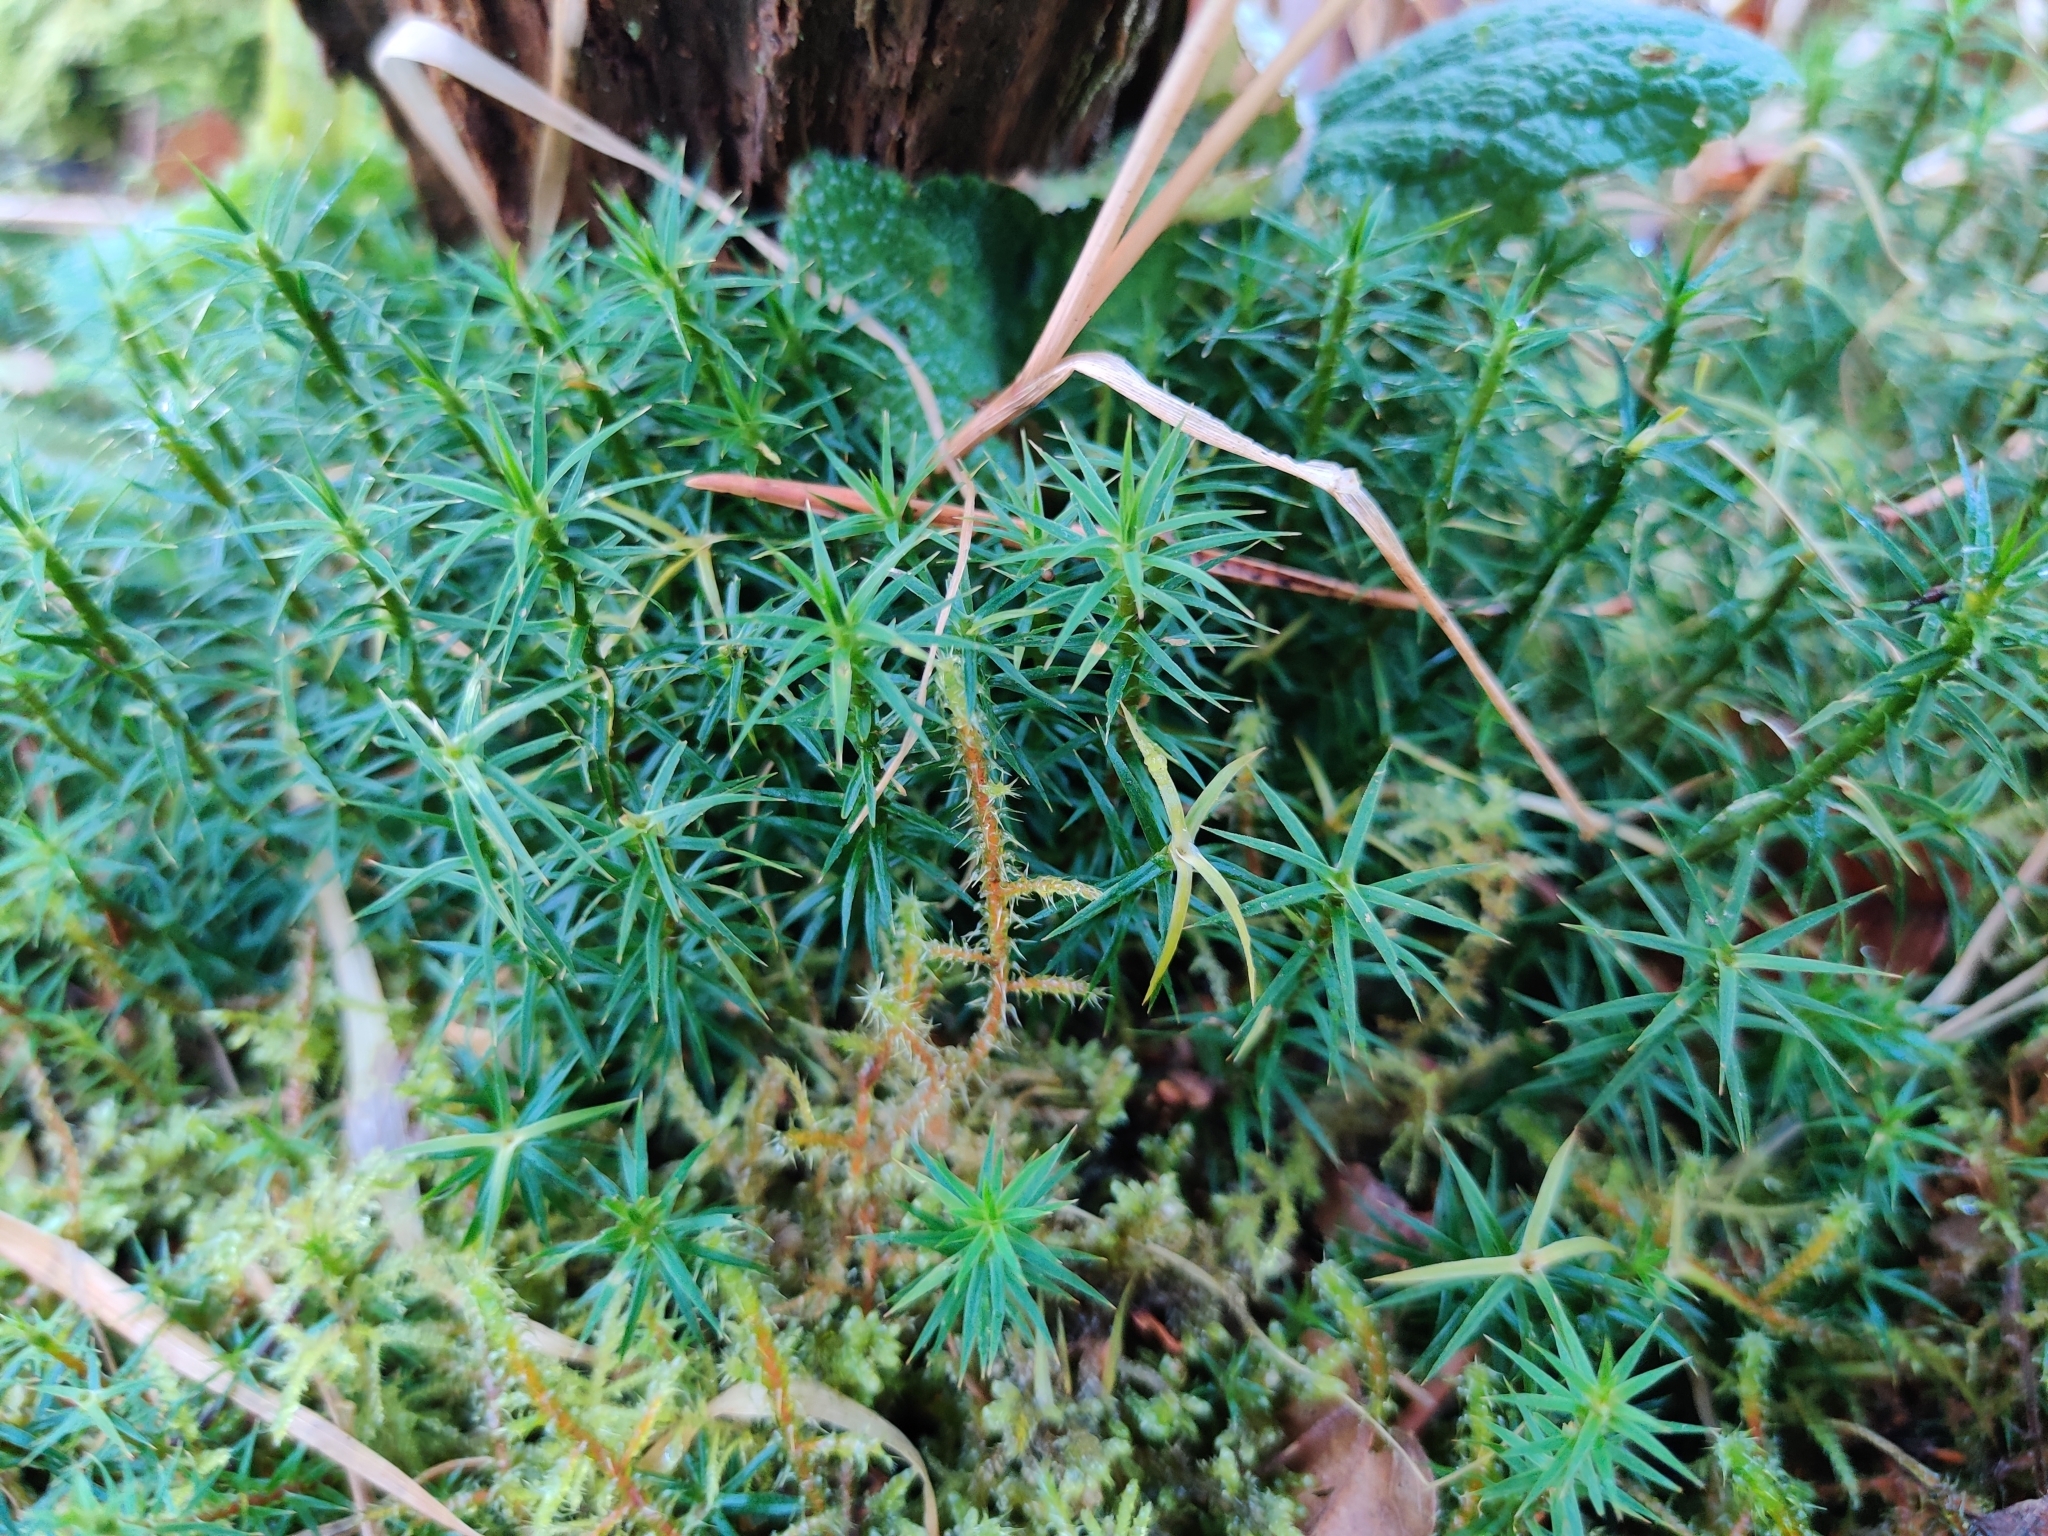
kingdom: Plantae
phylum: Bryophyta
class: Polytrichopsida
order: Polytrichales
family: Polytrichaceae
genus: Polytrichum
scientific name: Polytrichum formosum
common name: Bank haircap moss
